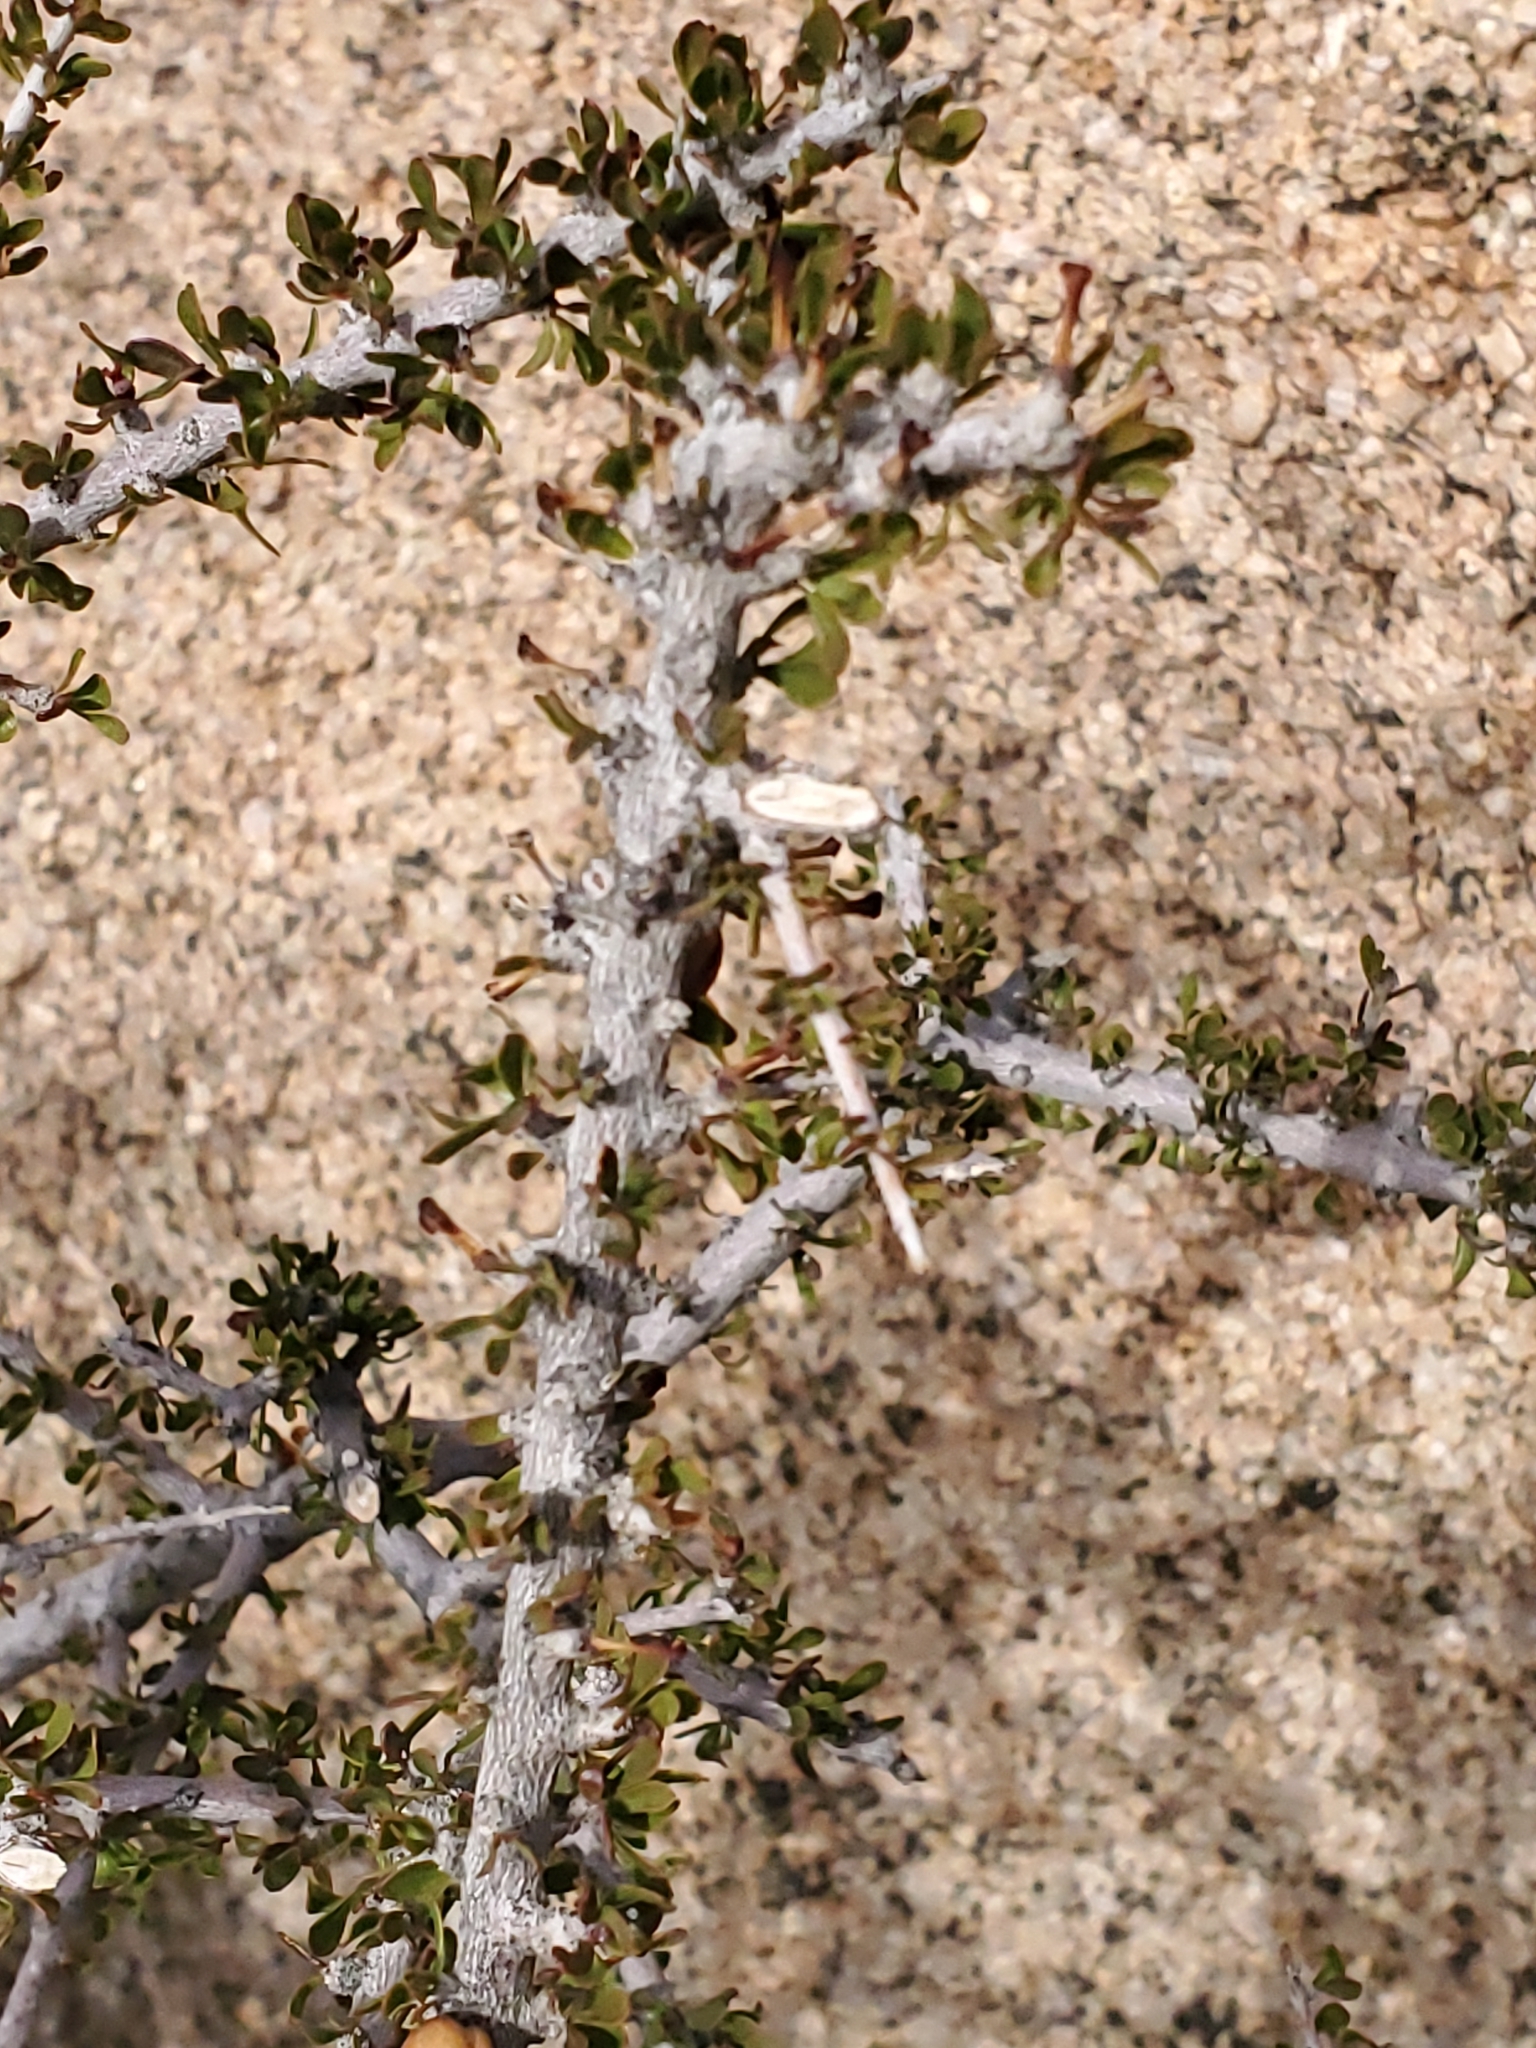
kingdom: Plantae
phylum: Tracheophyta
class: Magnoliopsida
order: Malpighiales
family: Picrodendraceae
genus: Tetracoccus
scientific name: Tetracoccus hallii
